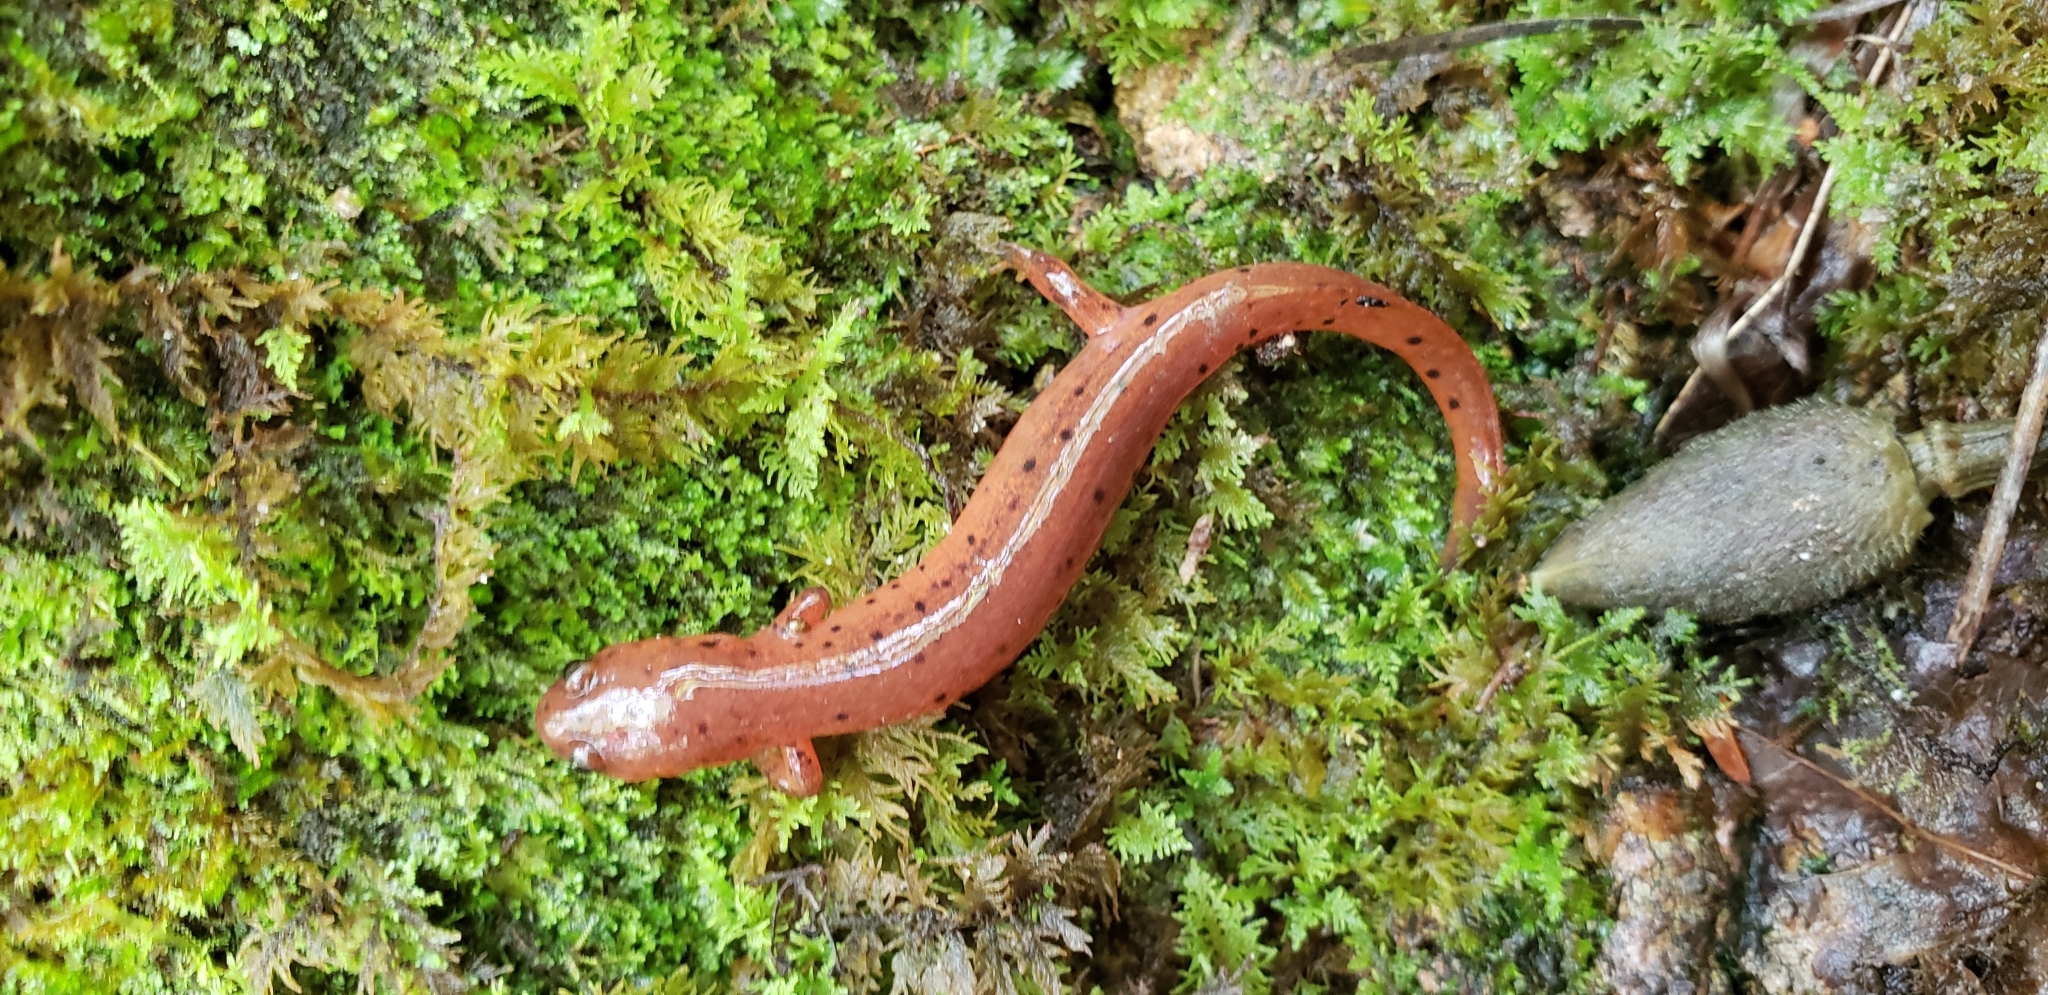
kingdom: Animalia
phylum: Chordata
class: Amphibia
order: Caudata
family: Plethodontidae
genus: Pseudotriton
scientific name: Pseudotriton montanus
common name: Mud salamander
